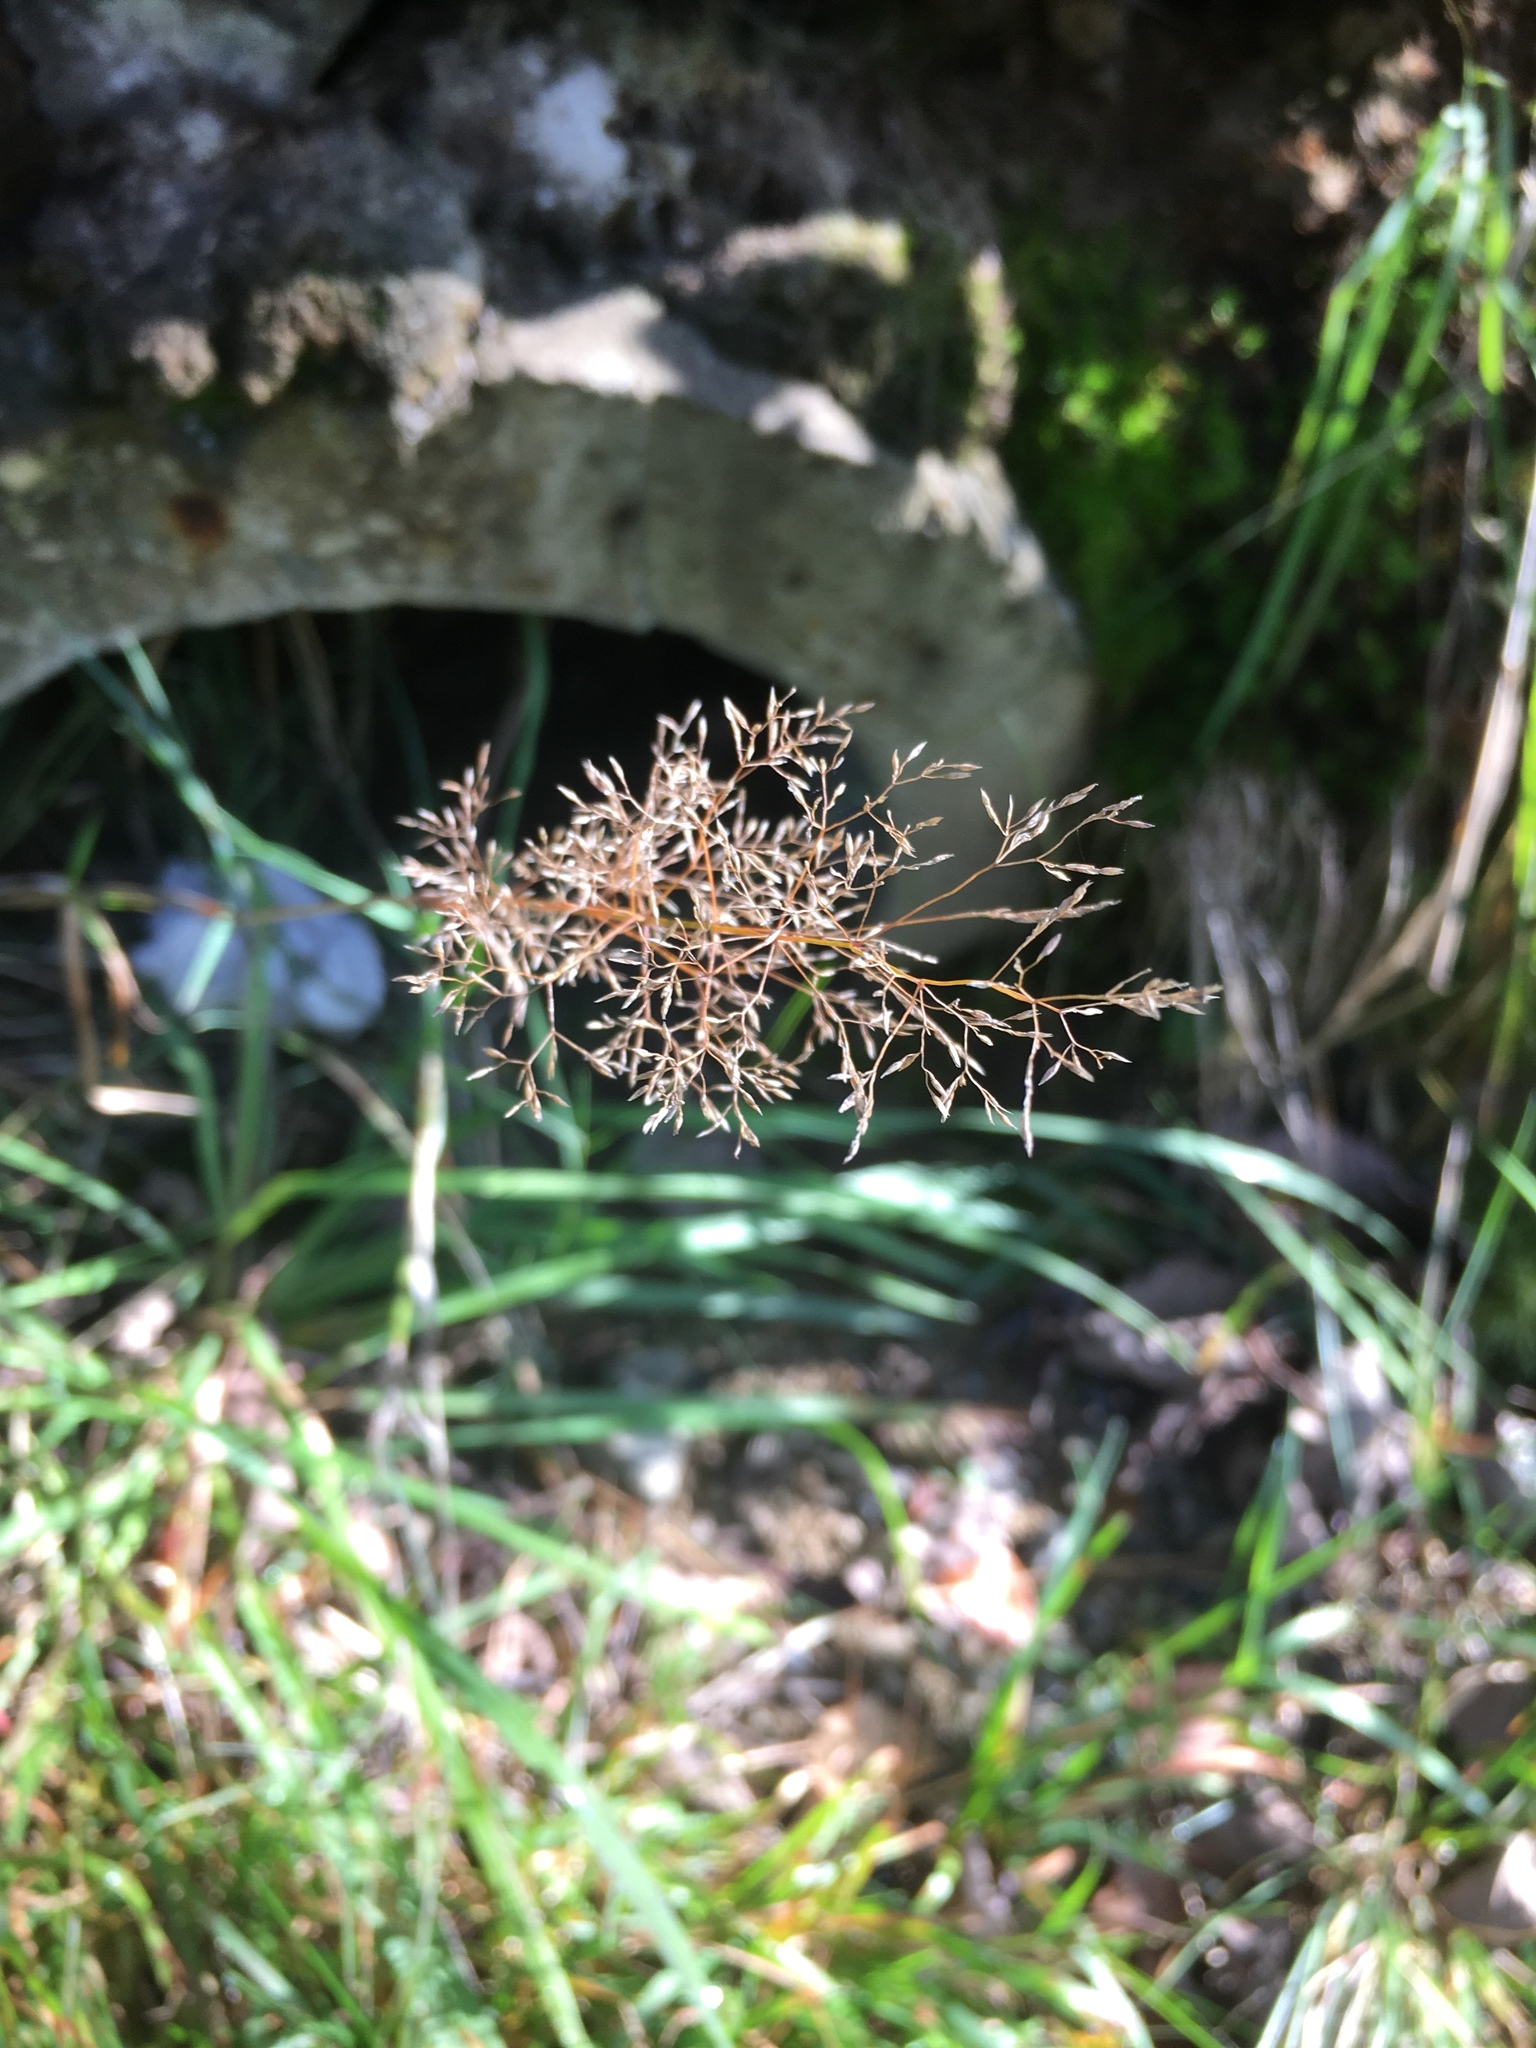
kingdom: Plantae
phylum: Tracheophyta
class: Liliopsida
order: Poales
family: Poaceae
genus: Agrostis
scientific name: Agrostis capillaris
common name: Colonial bentgrass
